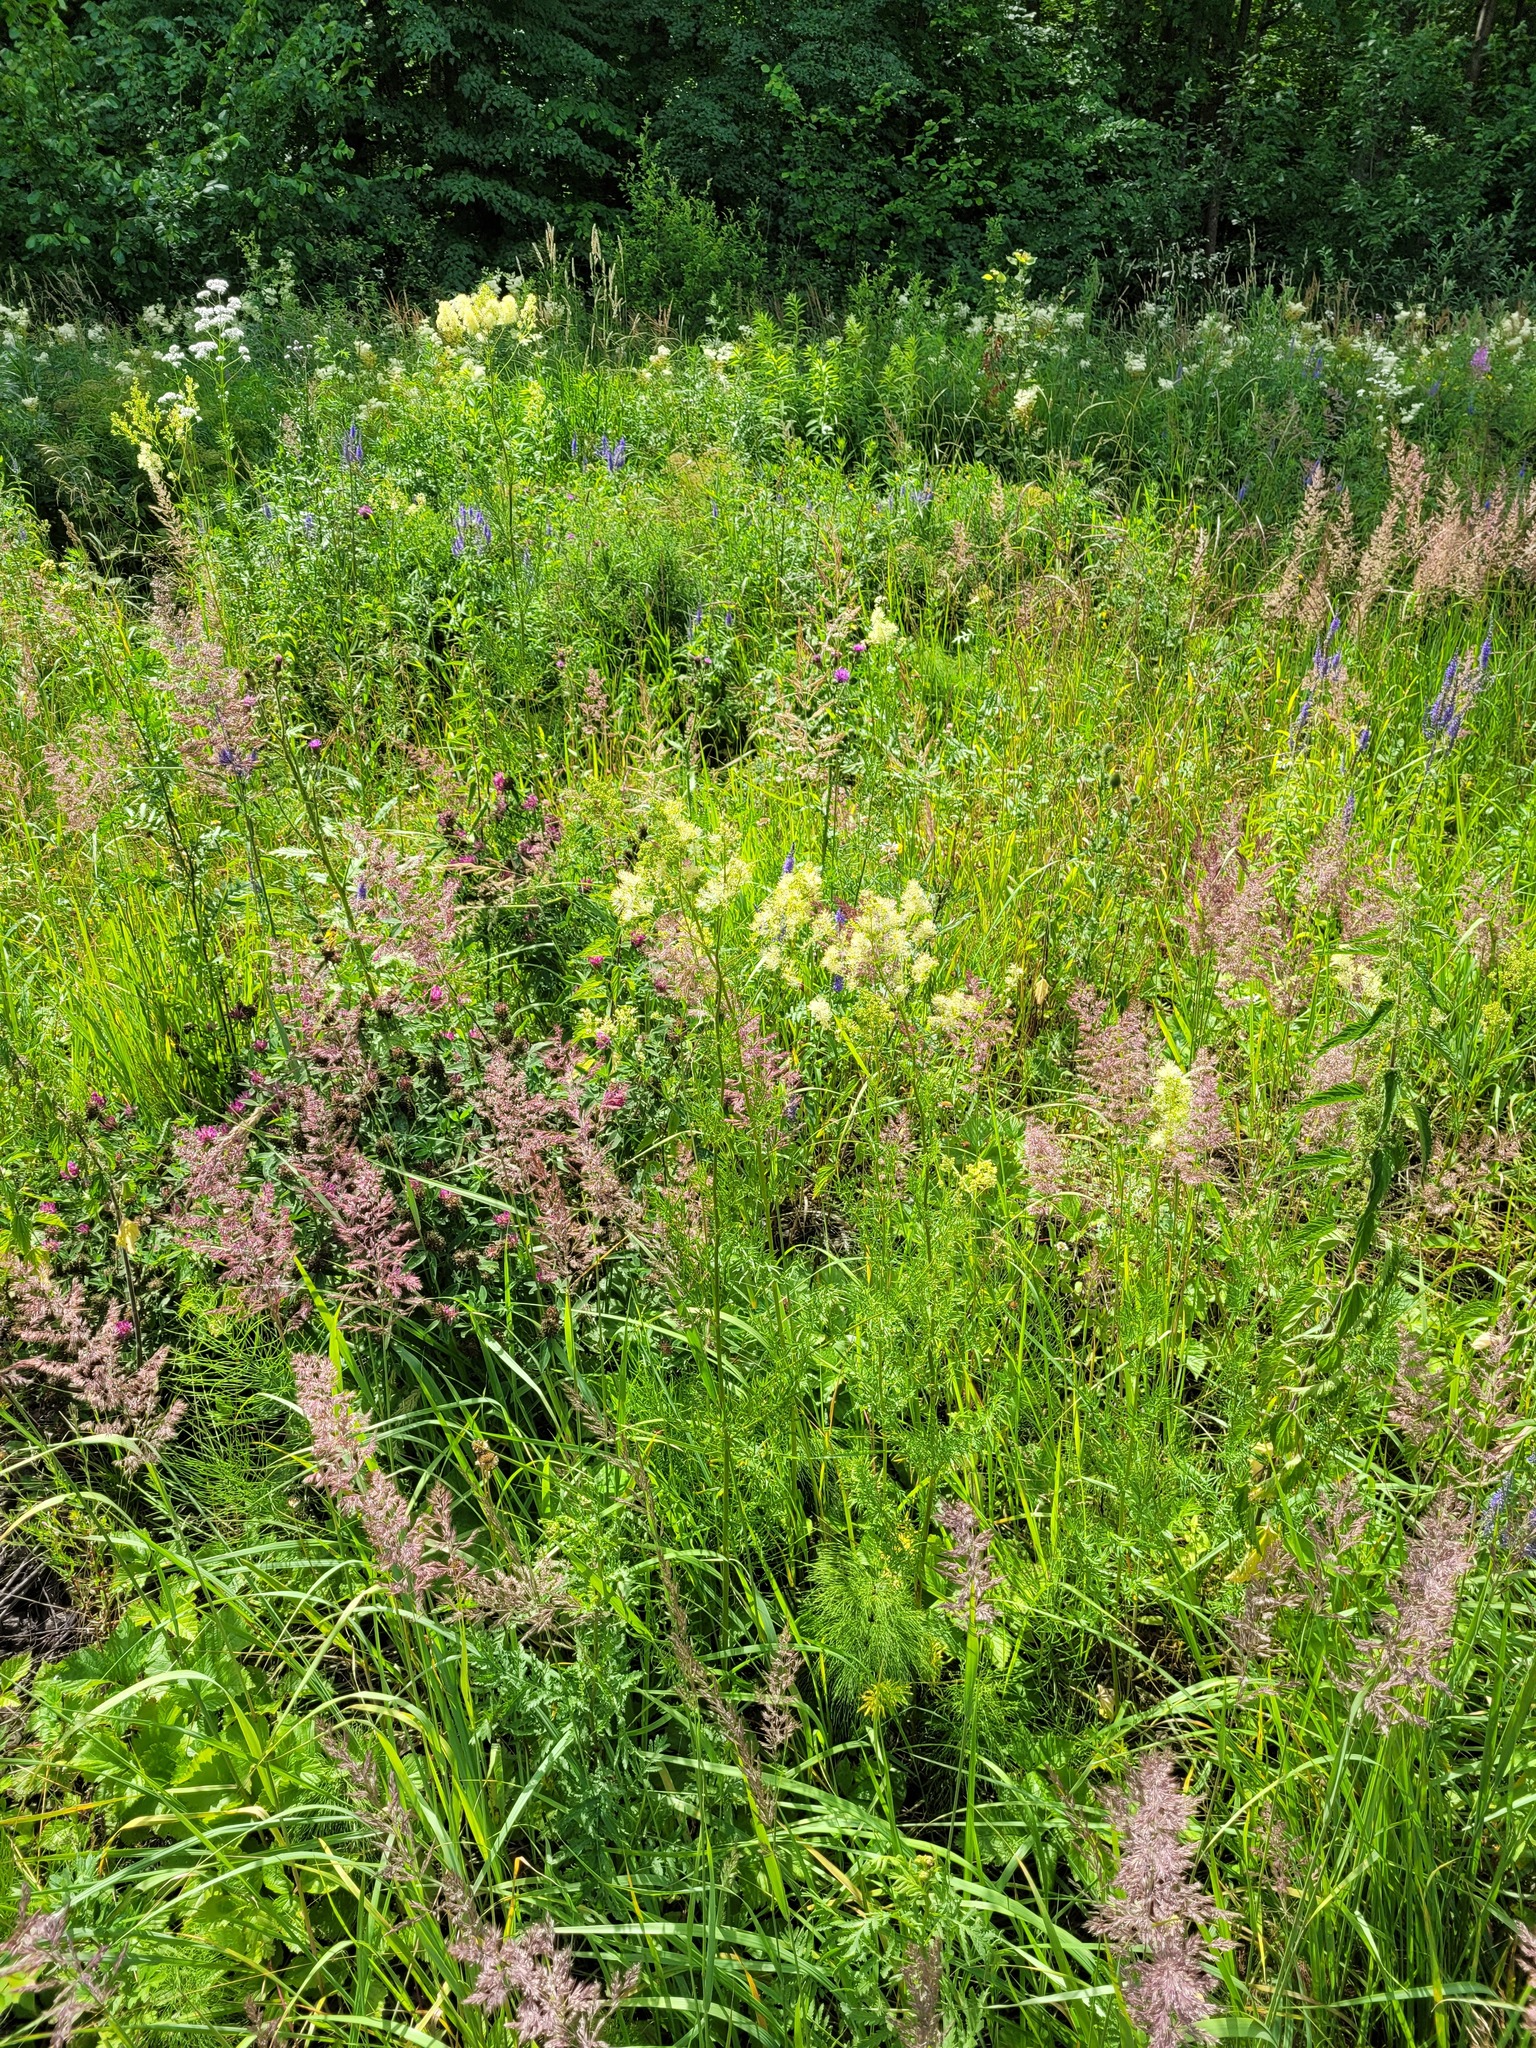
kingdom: Plantae
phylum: Tracheophyta
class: Magnoliopsida
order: Ranunculales
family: Ranunculaceae
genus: Thalictrum
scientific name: Thalictrum lucidum
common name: Shining meadow-rue
